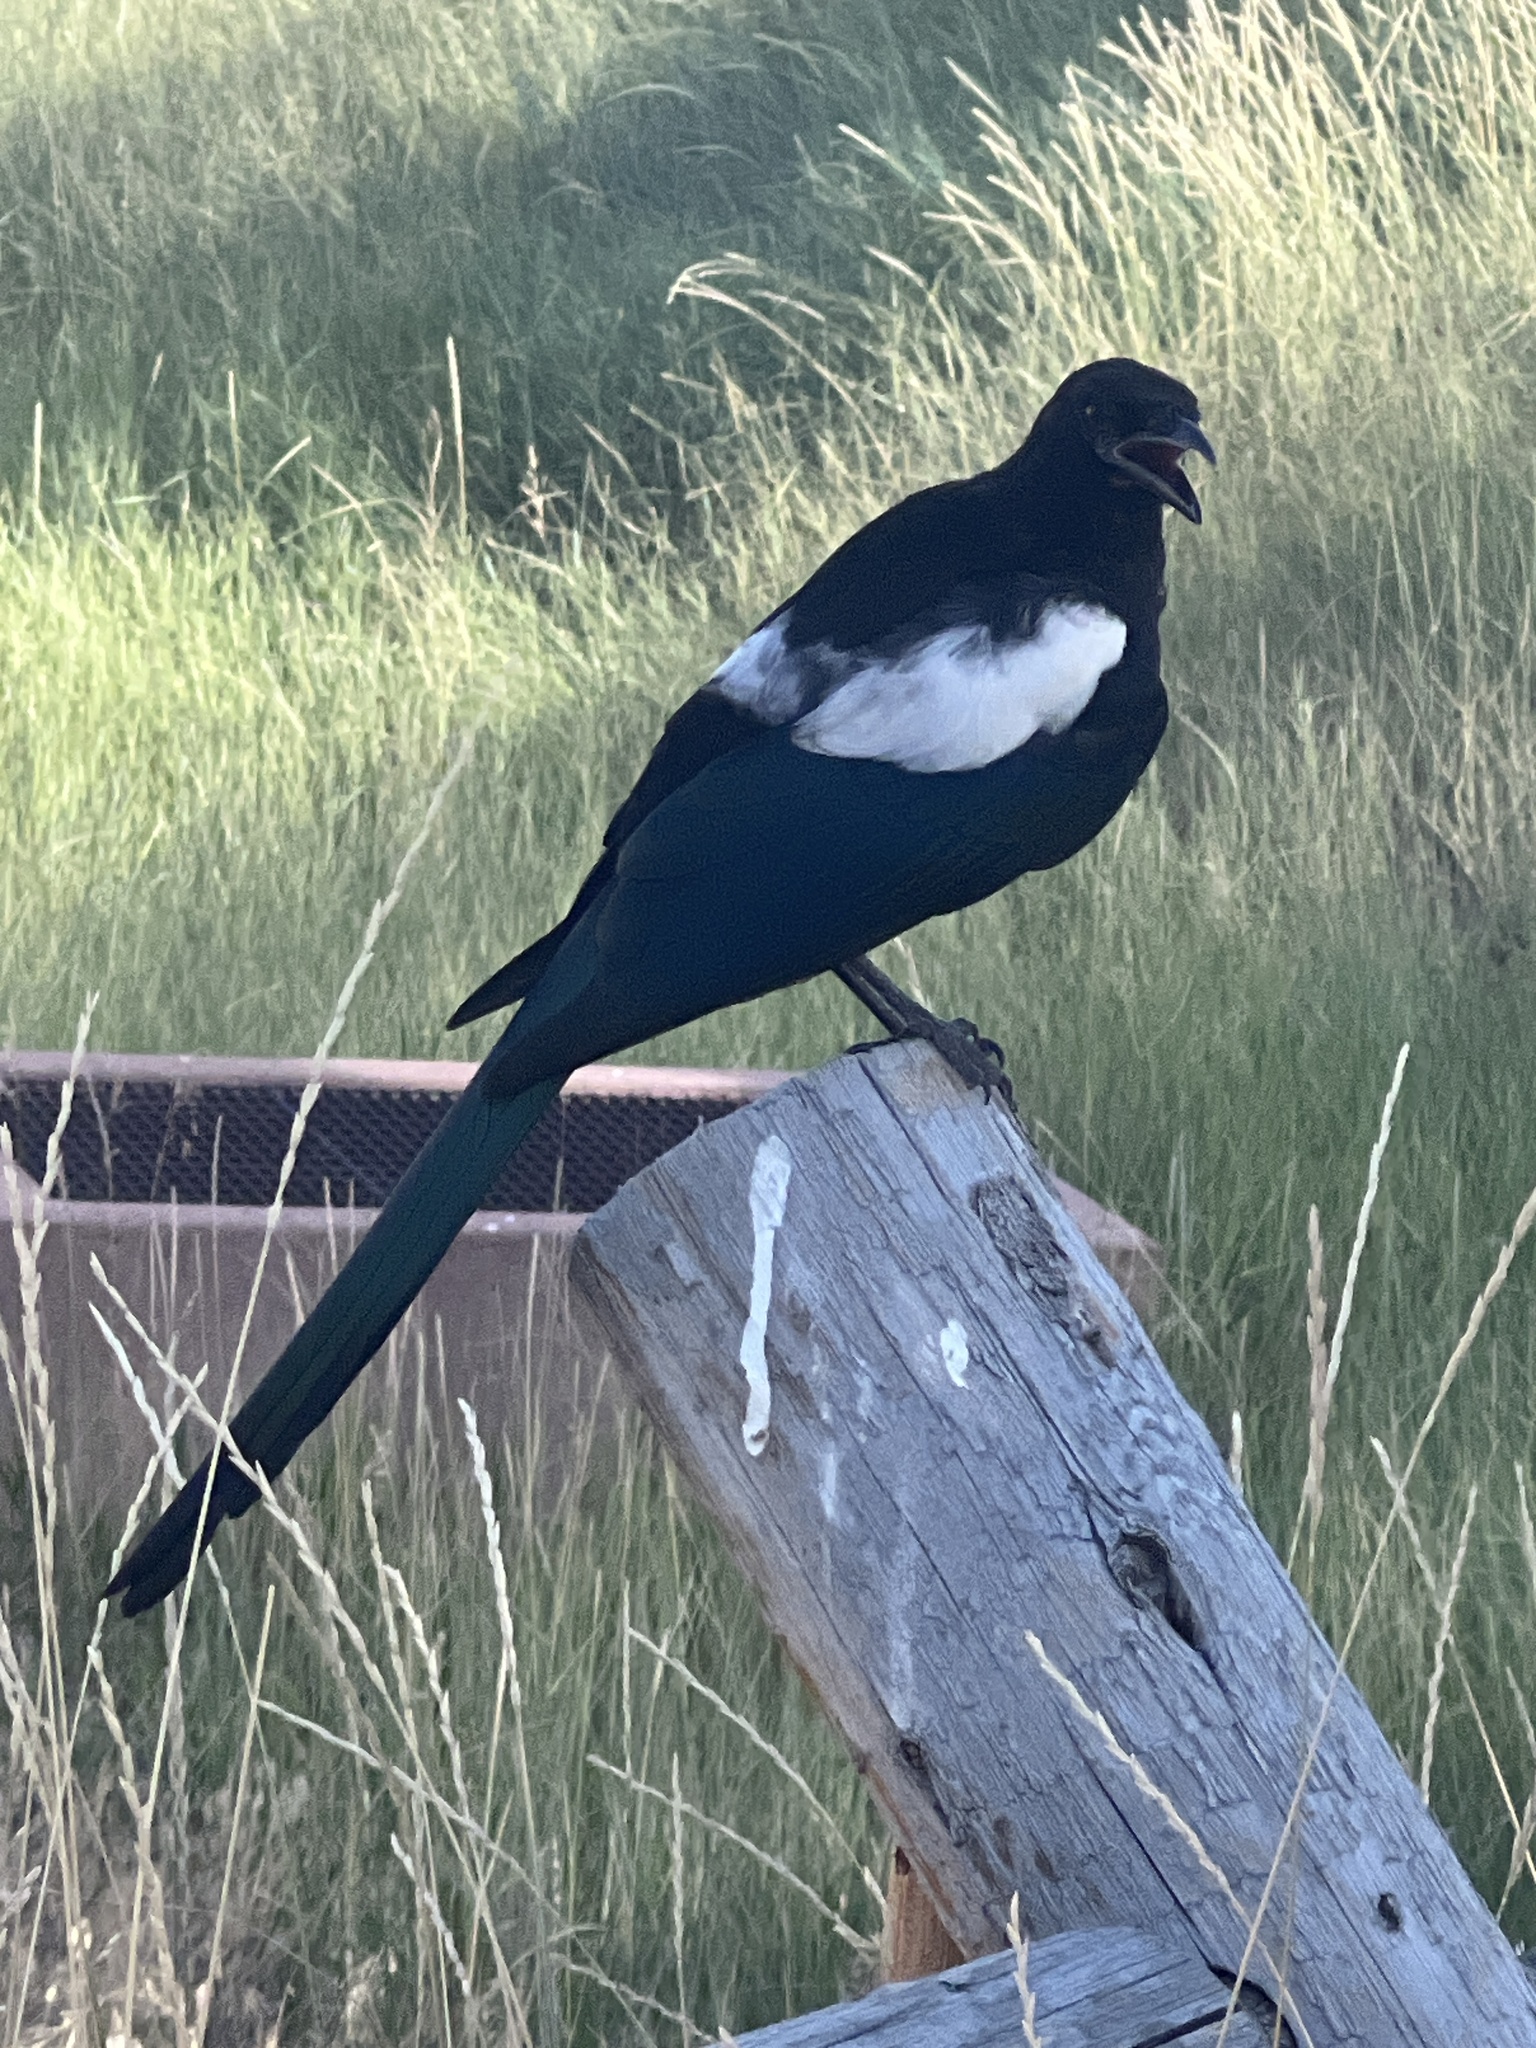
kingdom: Animalia
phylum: Chordata
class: Aves
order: Passeriformes
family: Corvidae
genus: Pica
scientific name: Pica hudsonia
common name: Black-billed magpie
